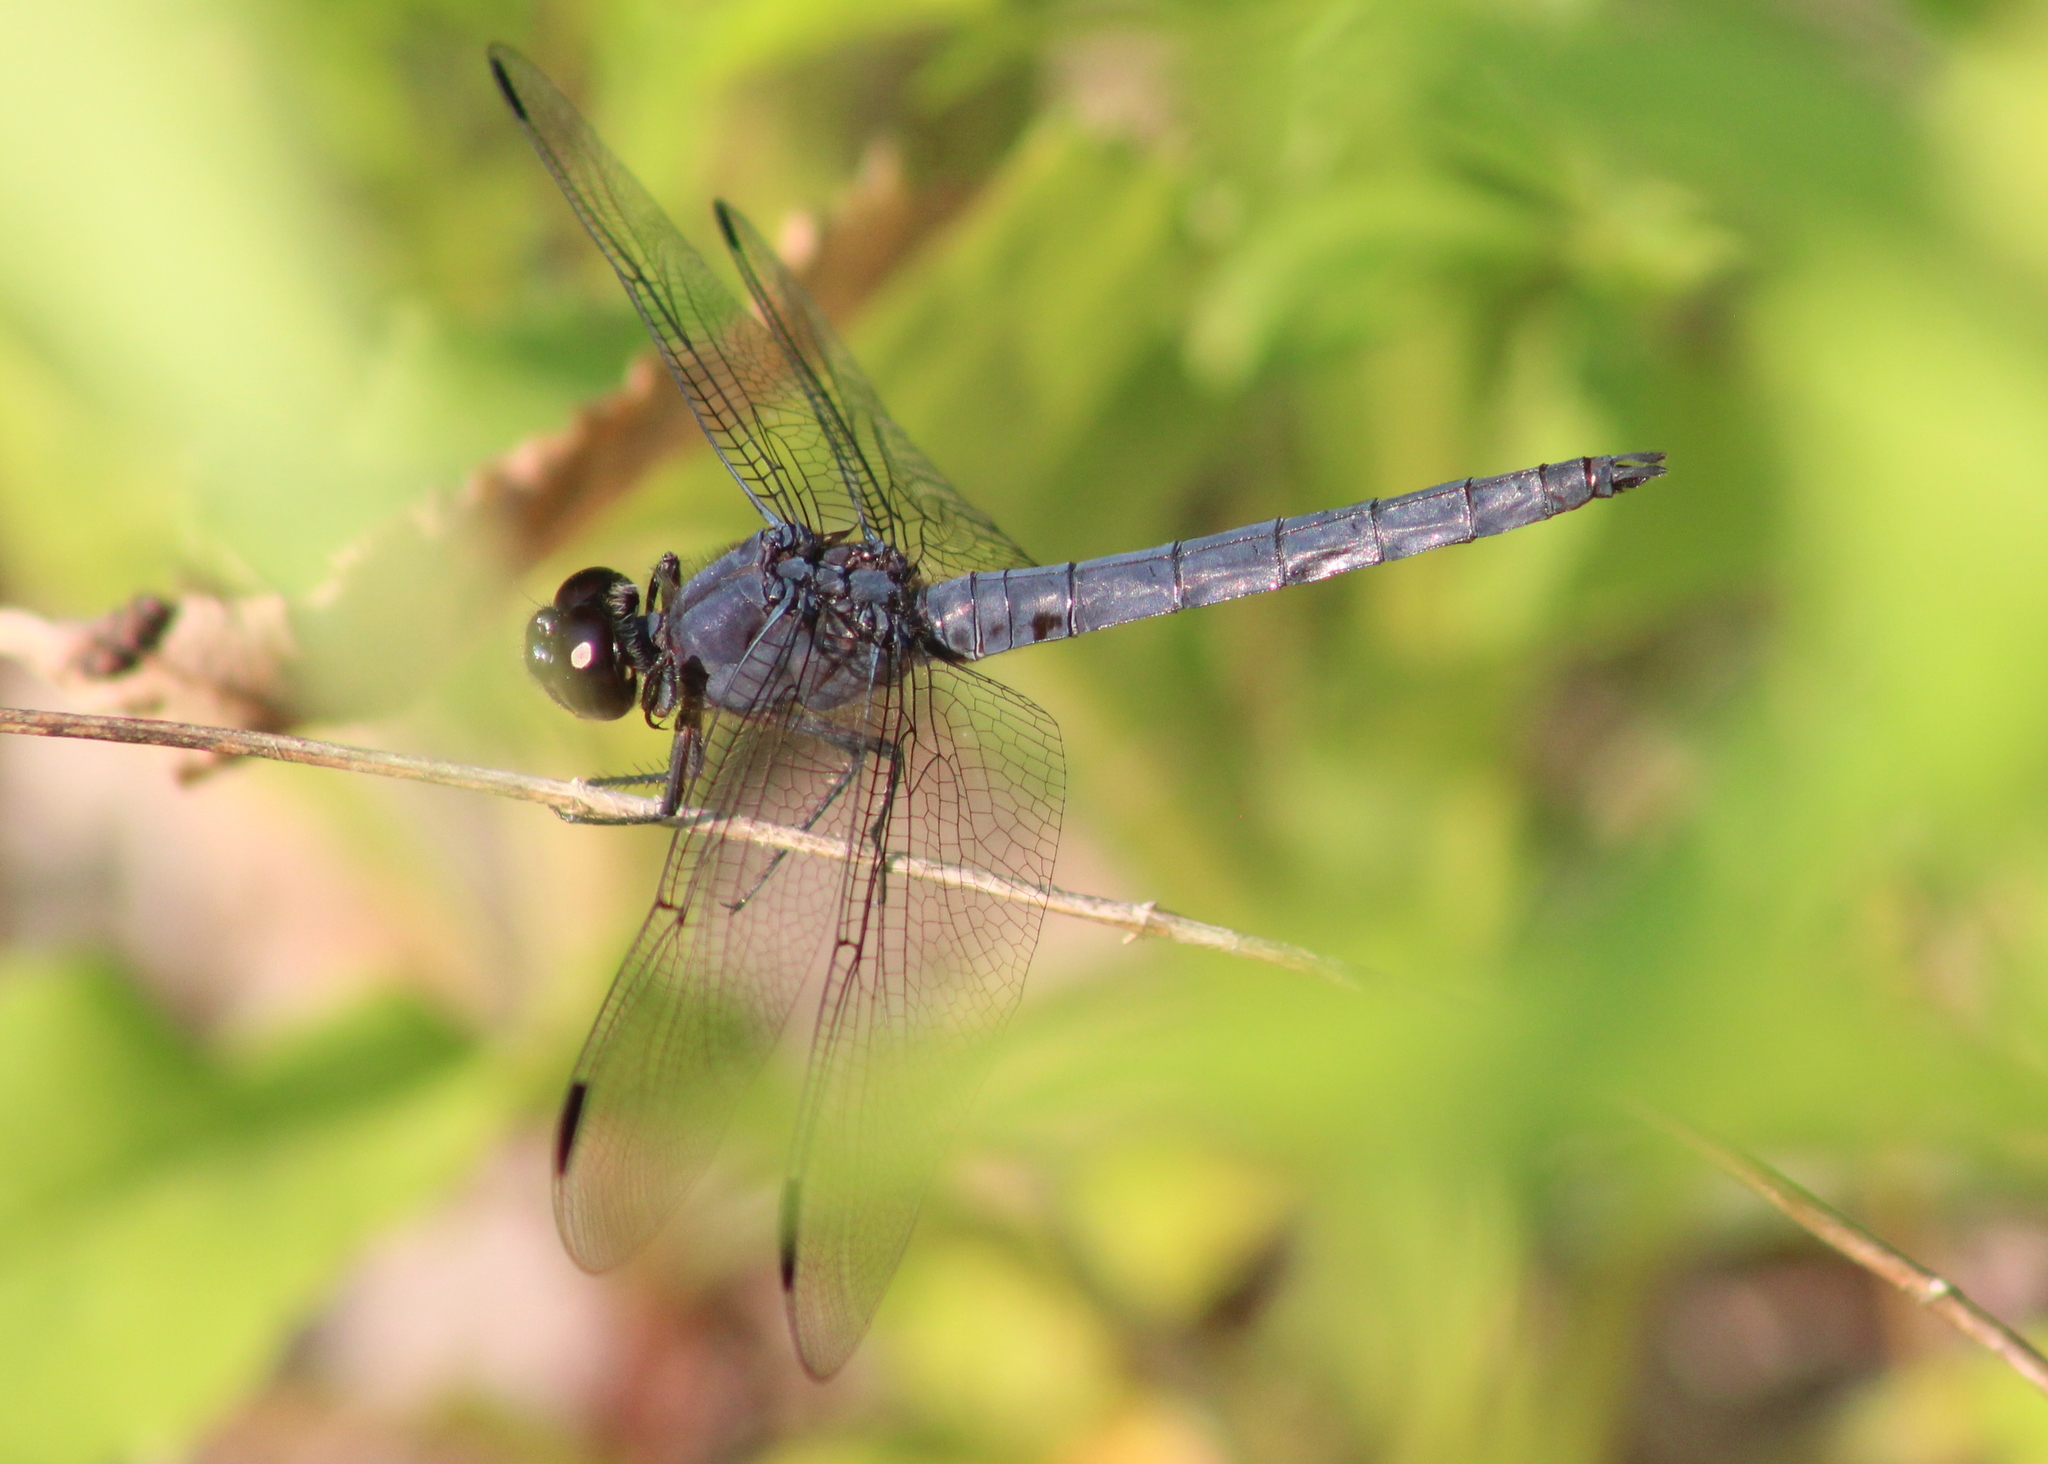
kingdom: Animalia
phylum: Arthropoda
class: Insecta
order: Odonata
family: Libellulidae
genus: Libellula
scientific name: Libellula incesta
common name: Slaty skimmer
